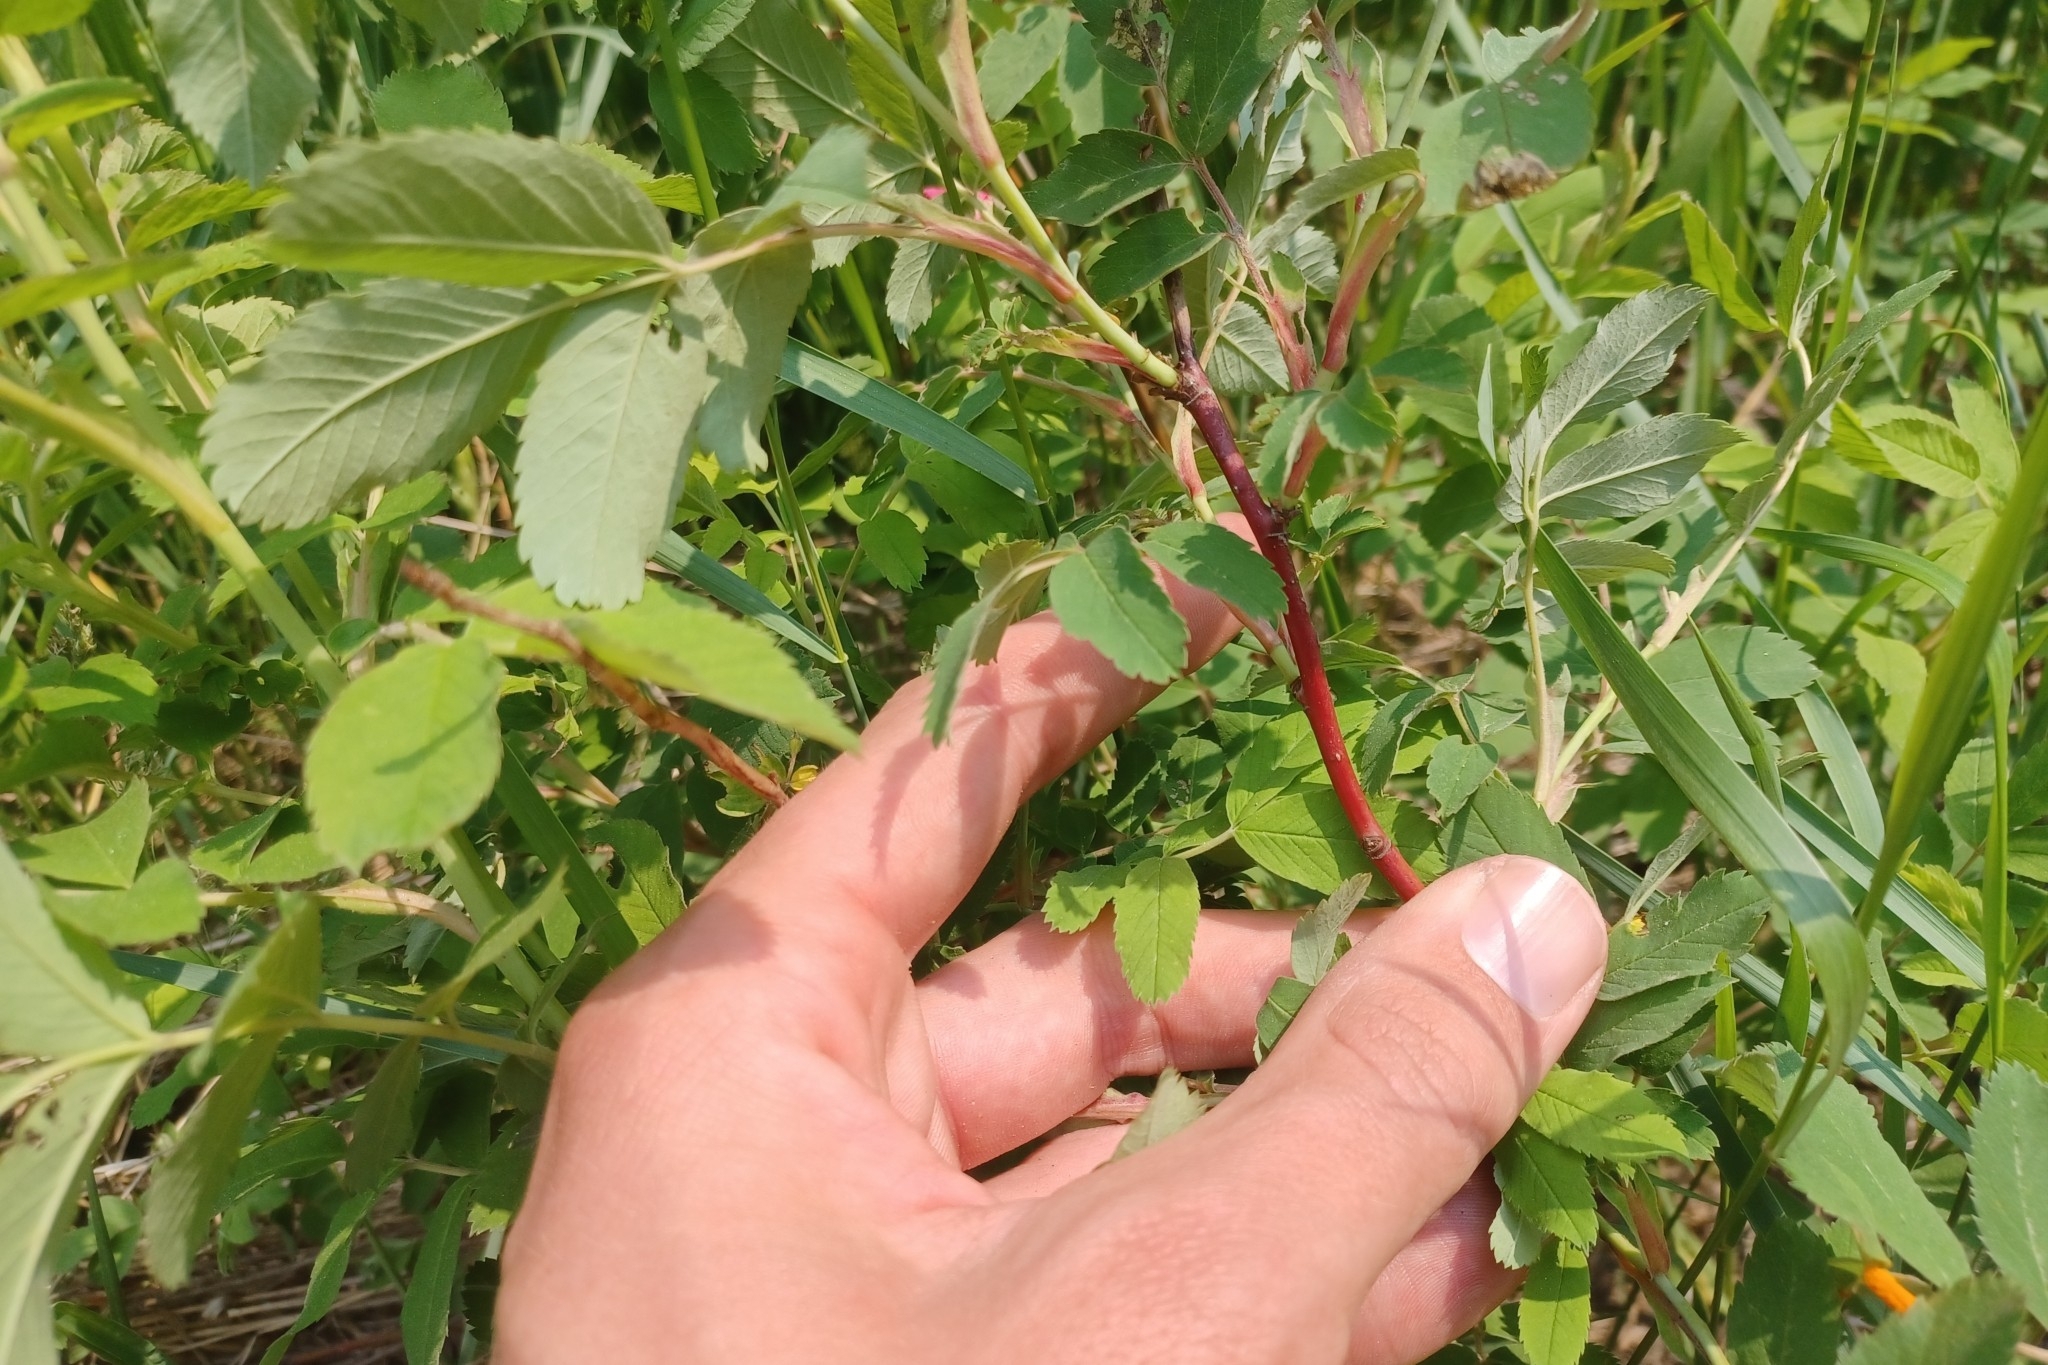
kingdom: Plantae
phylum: Tracheophyta
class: Magnoliopsida
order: Rosales
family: Rosaceae
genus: Rosa
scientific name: Rosa blanda
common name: Smooth rose
